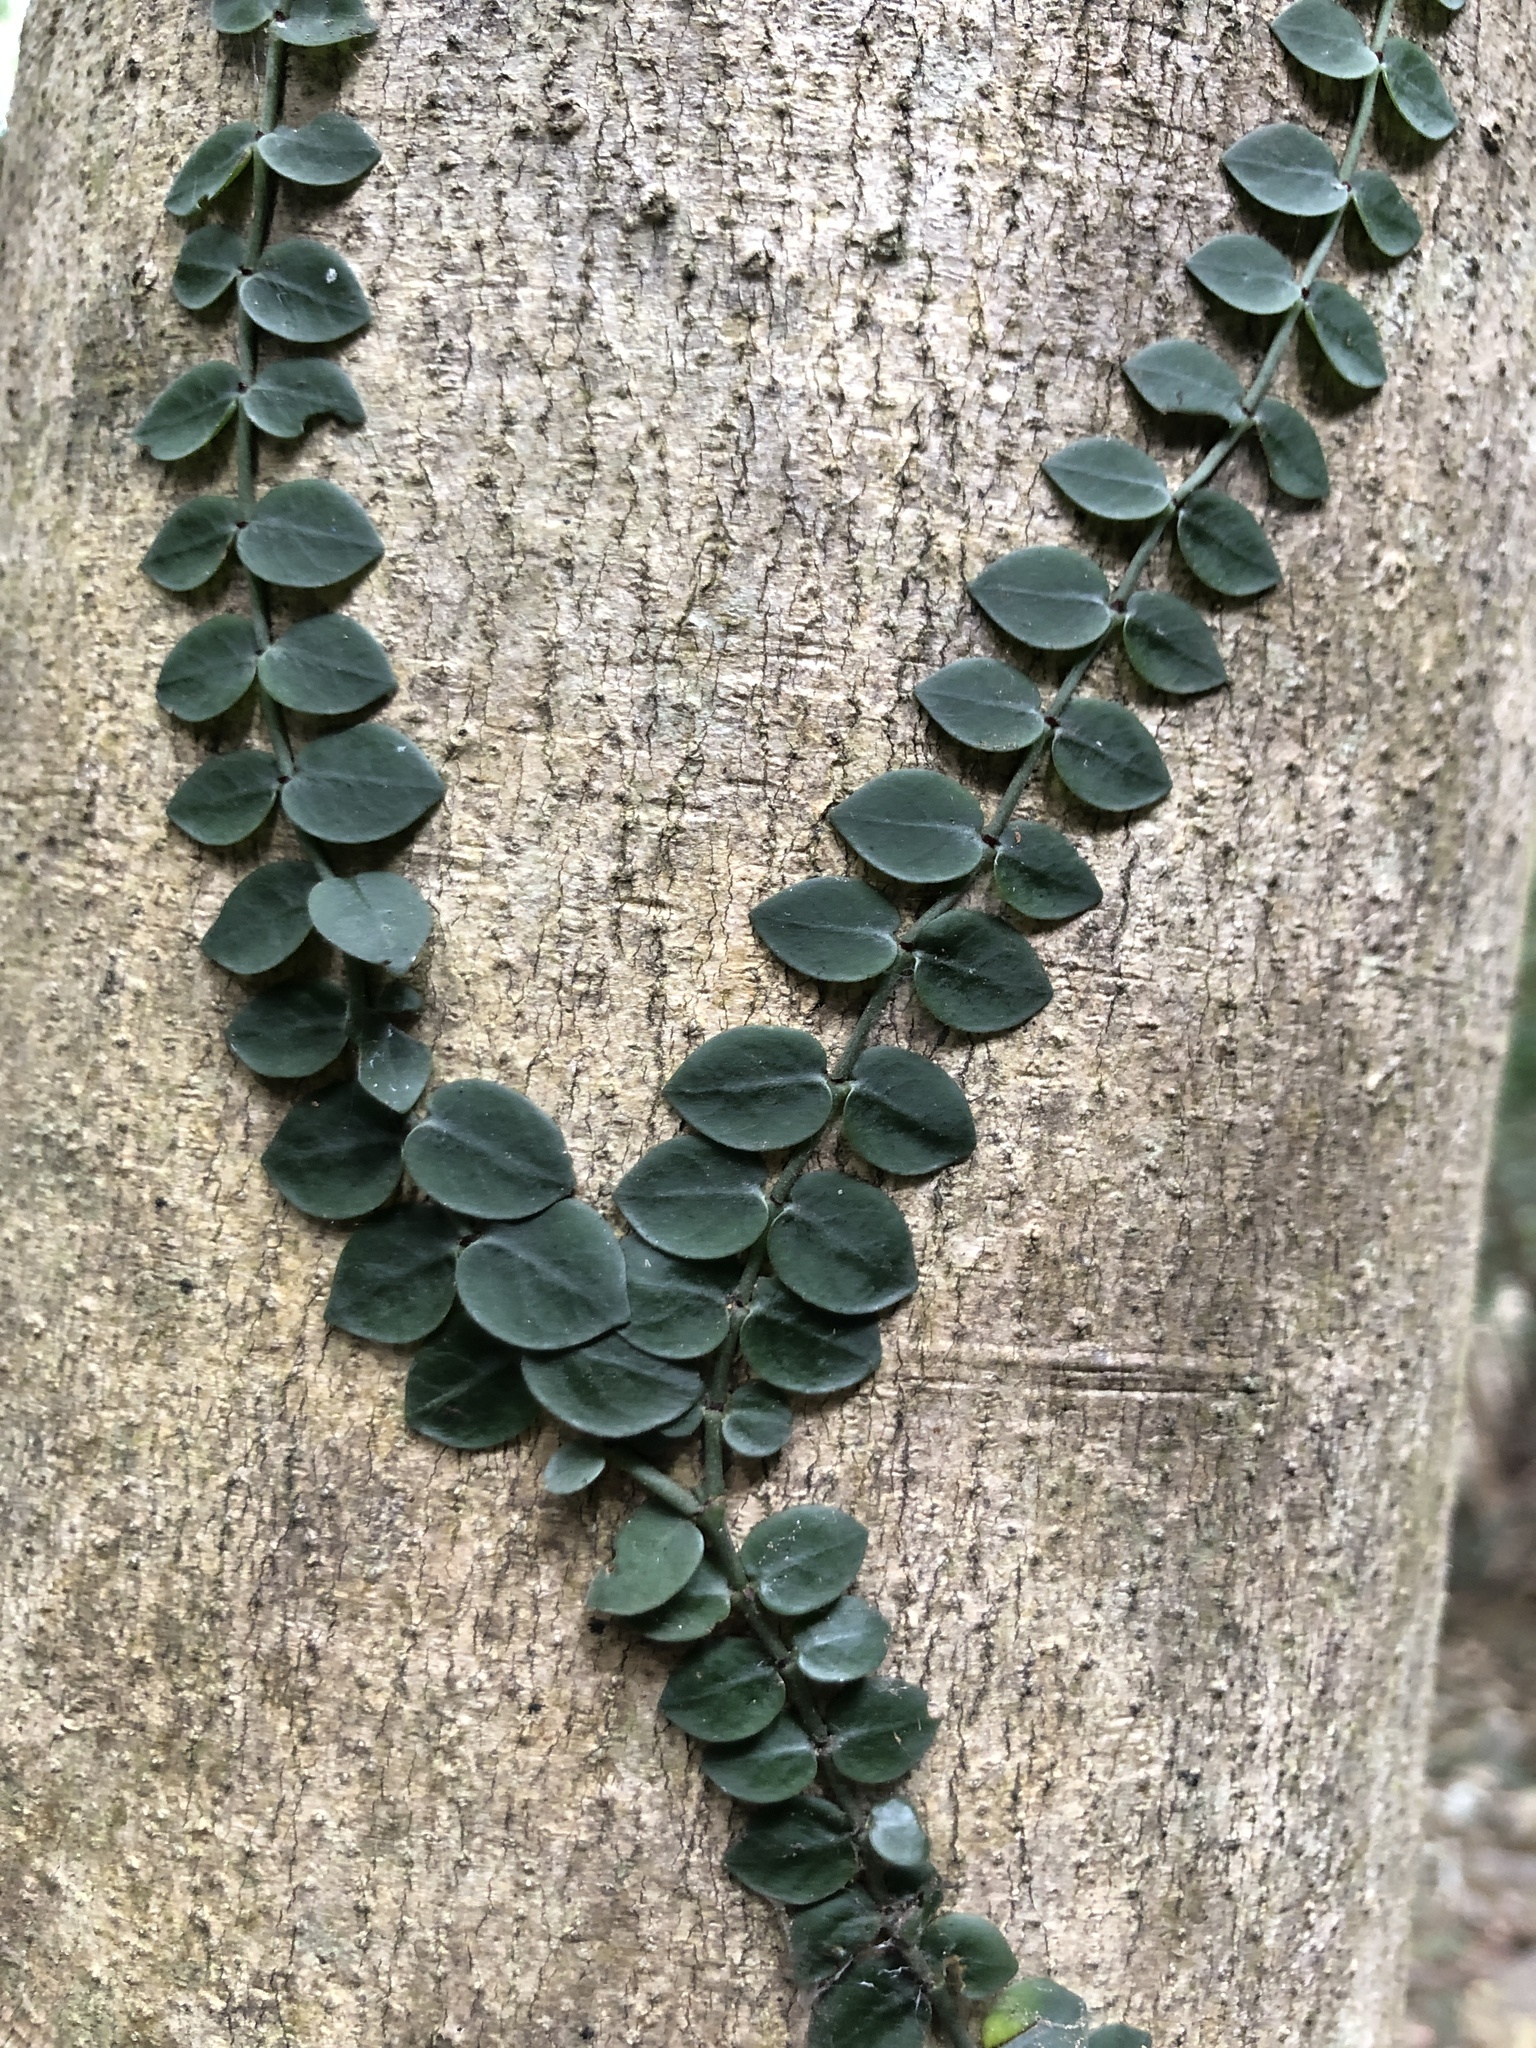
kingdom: Plantae
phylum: Tracheophyta
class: Magnoliopsida
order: Gentianales
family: Rubiaceae
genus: Psychotria
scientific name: Psychotria serpens
